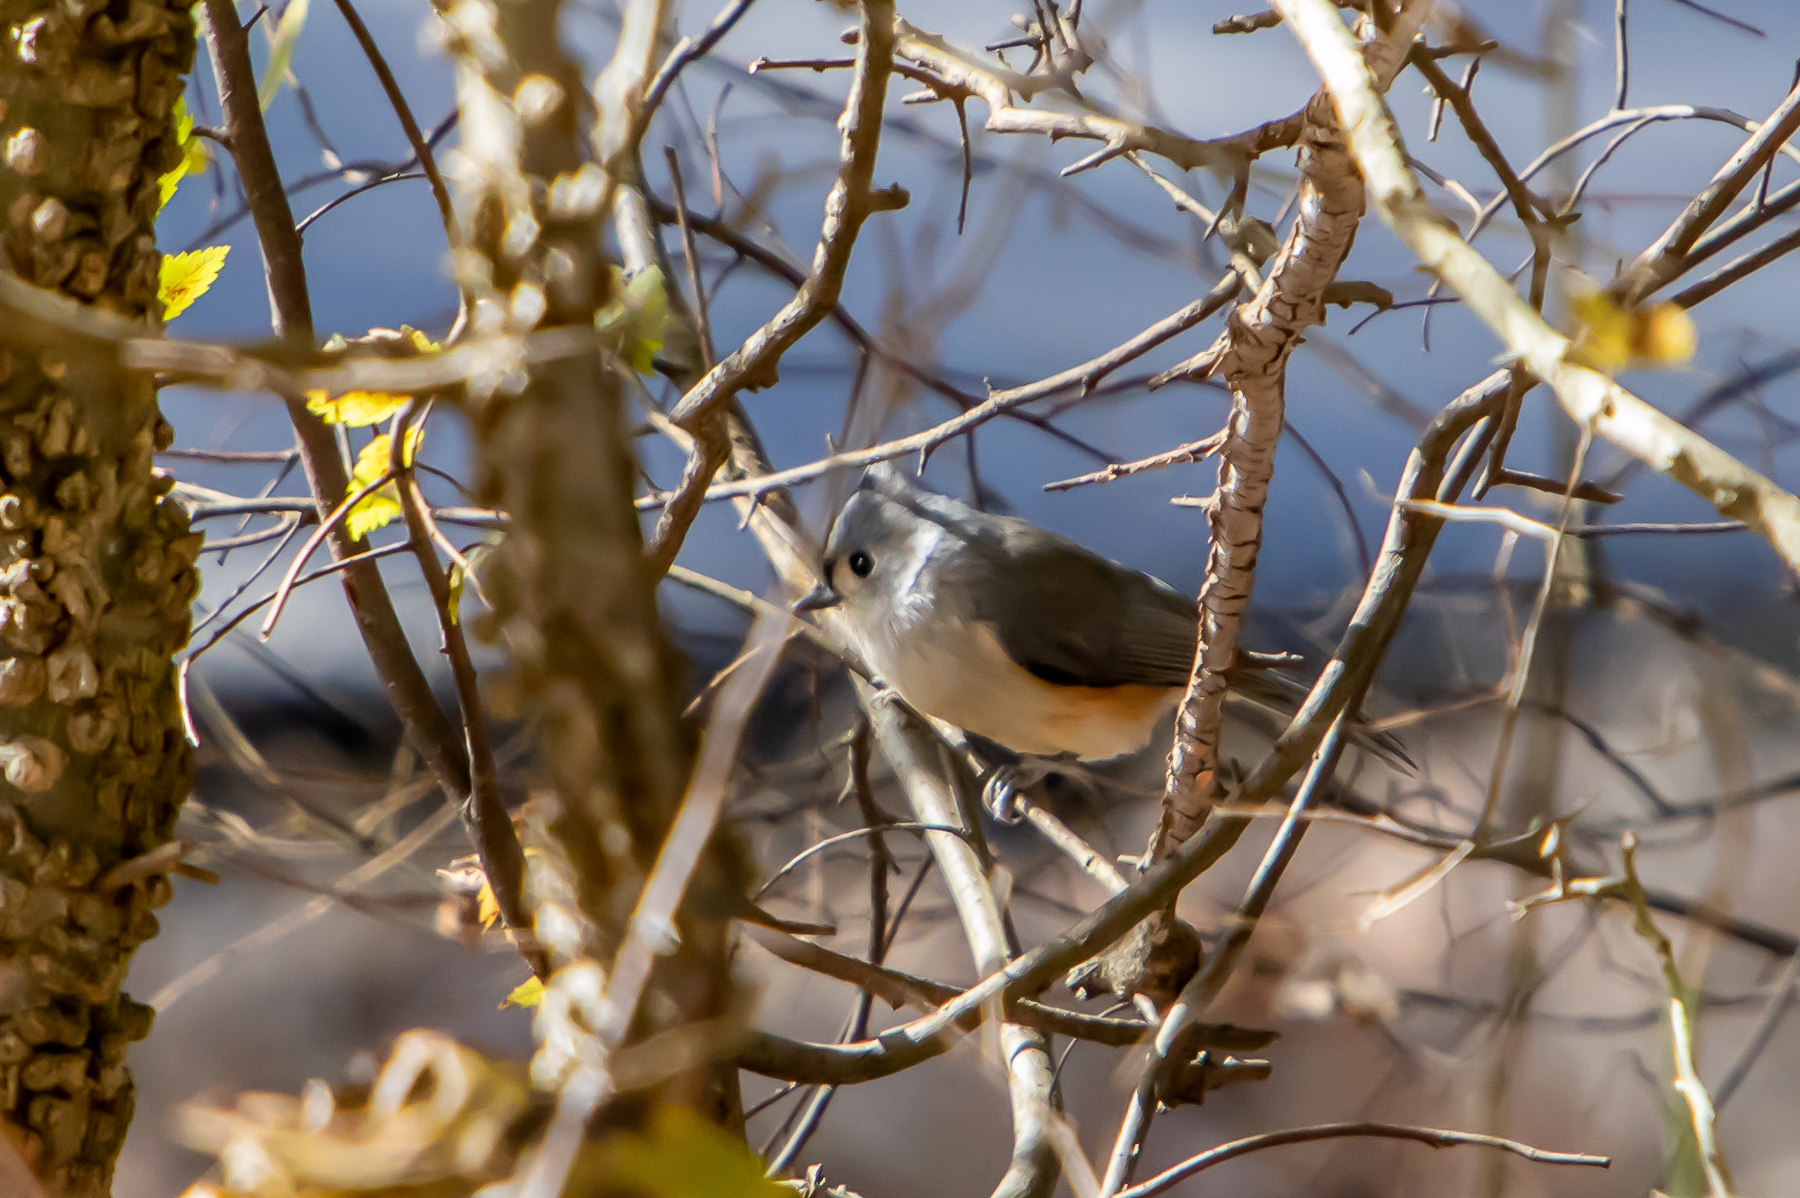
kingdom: Animalia
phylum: Chordata
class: Aves
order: Passeriformes
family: Paridae
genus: Baeolophus
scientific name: Baeolophus bicolor
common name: Tufted titmouse
